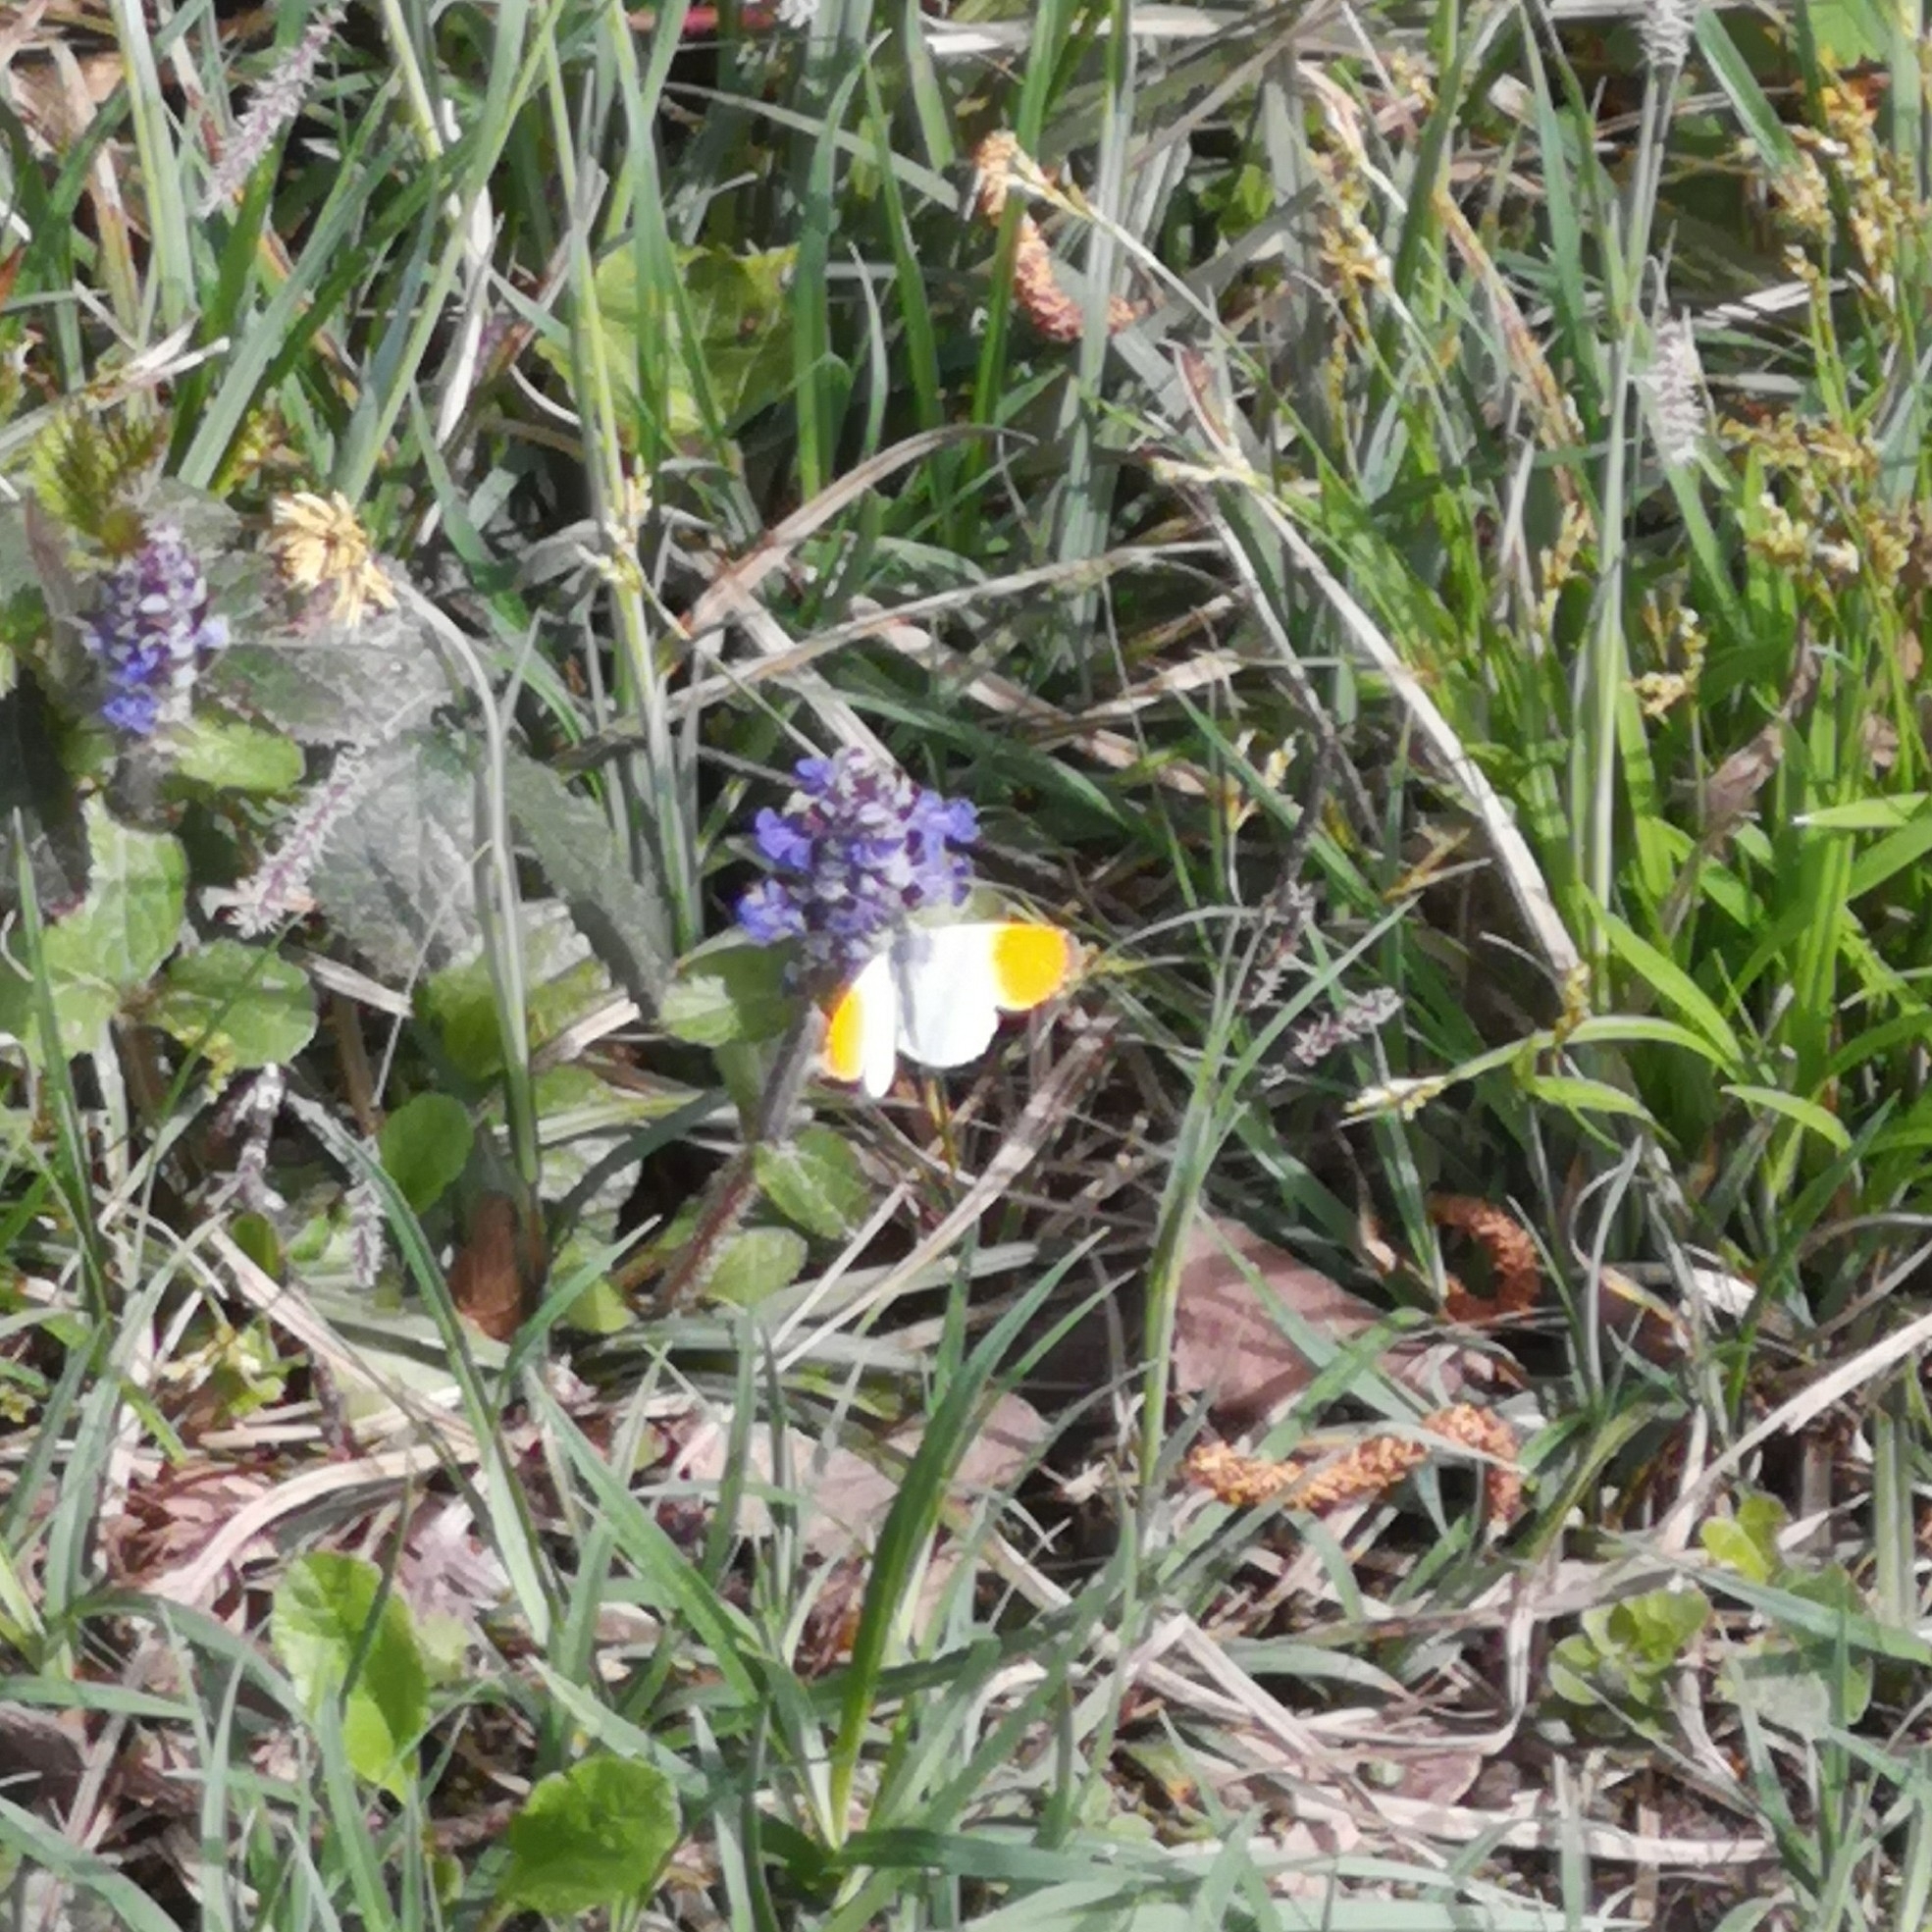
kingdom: Animalia
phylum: Arthropoda
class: Insecta
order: Lepidoptera
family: Pieridae
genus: Anthocharis
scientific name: Anthocharis cardamines
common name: Orange-tip
